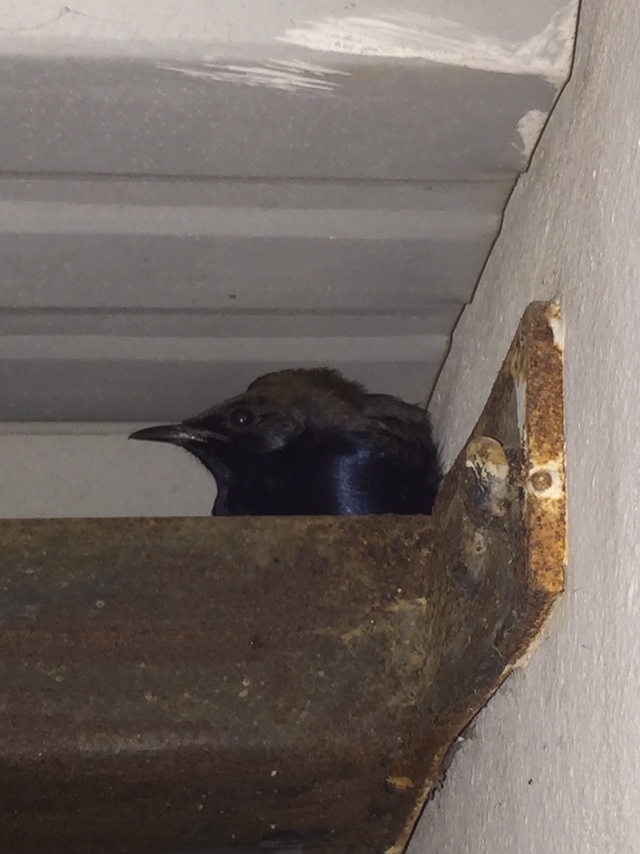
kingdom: Animalia
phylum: Chordata
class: Aves
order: Passeriformes
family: Muscicapidae
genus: Saxicoloides
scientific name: Saxicoloides fulicatus
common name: Indian robin
